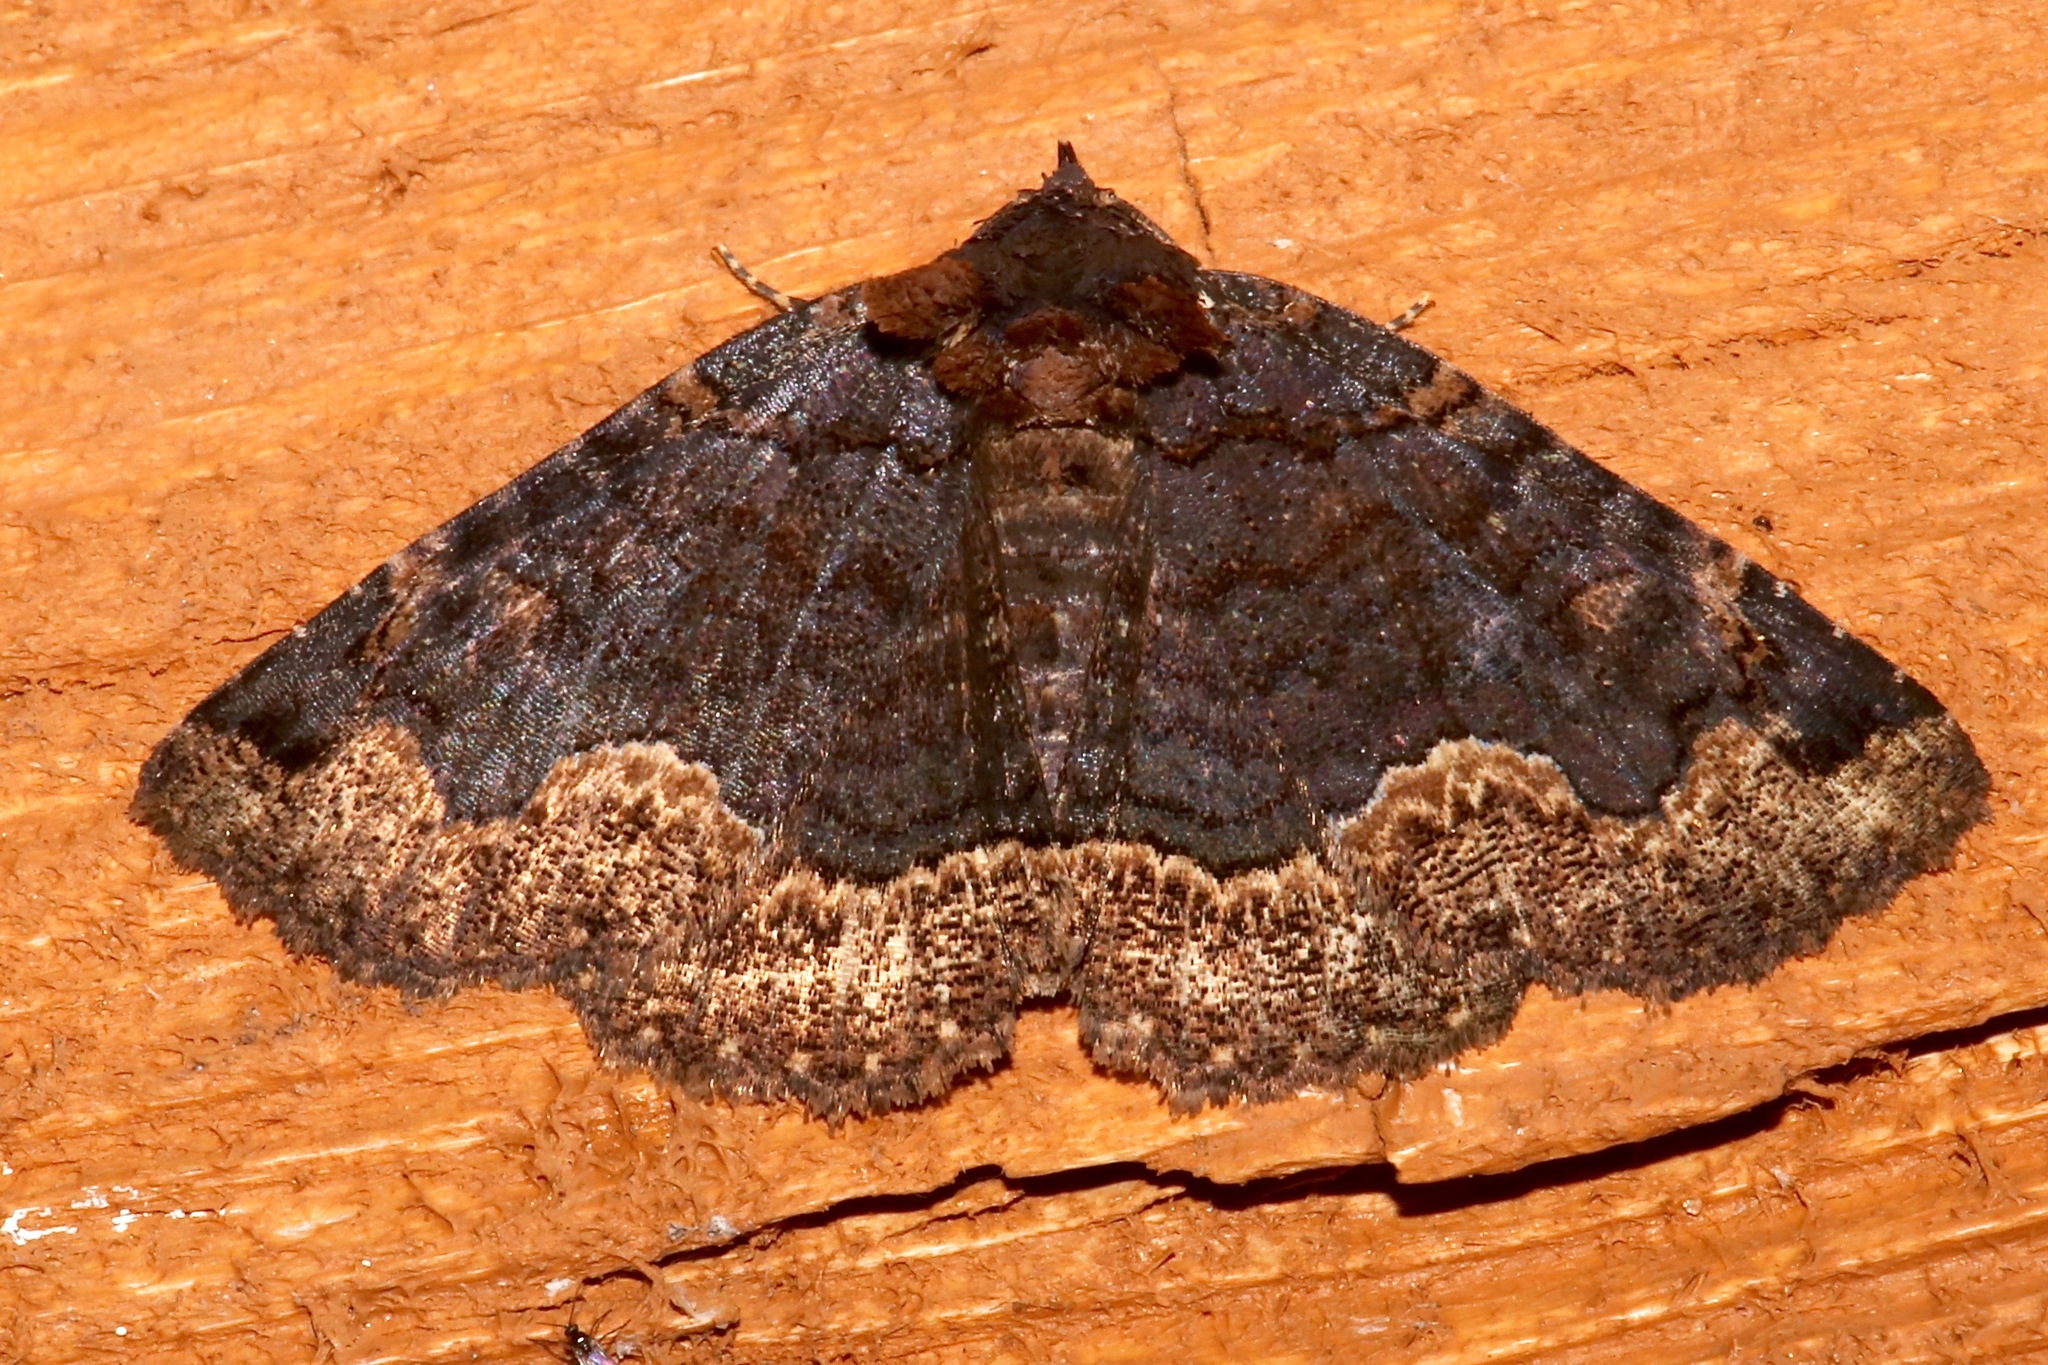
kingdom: Animalia
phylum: Arthropoda
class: Insecta
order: Lepidoptera
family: Erebidae
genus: Zale
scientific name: Zale horrida
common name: Horrid zale moth
